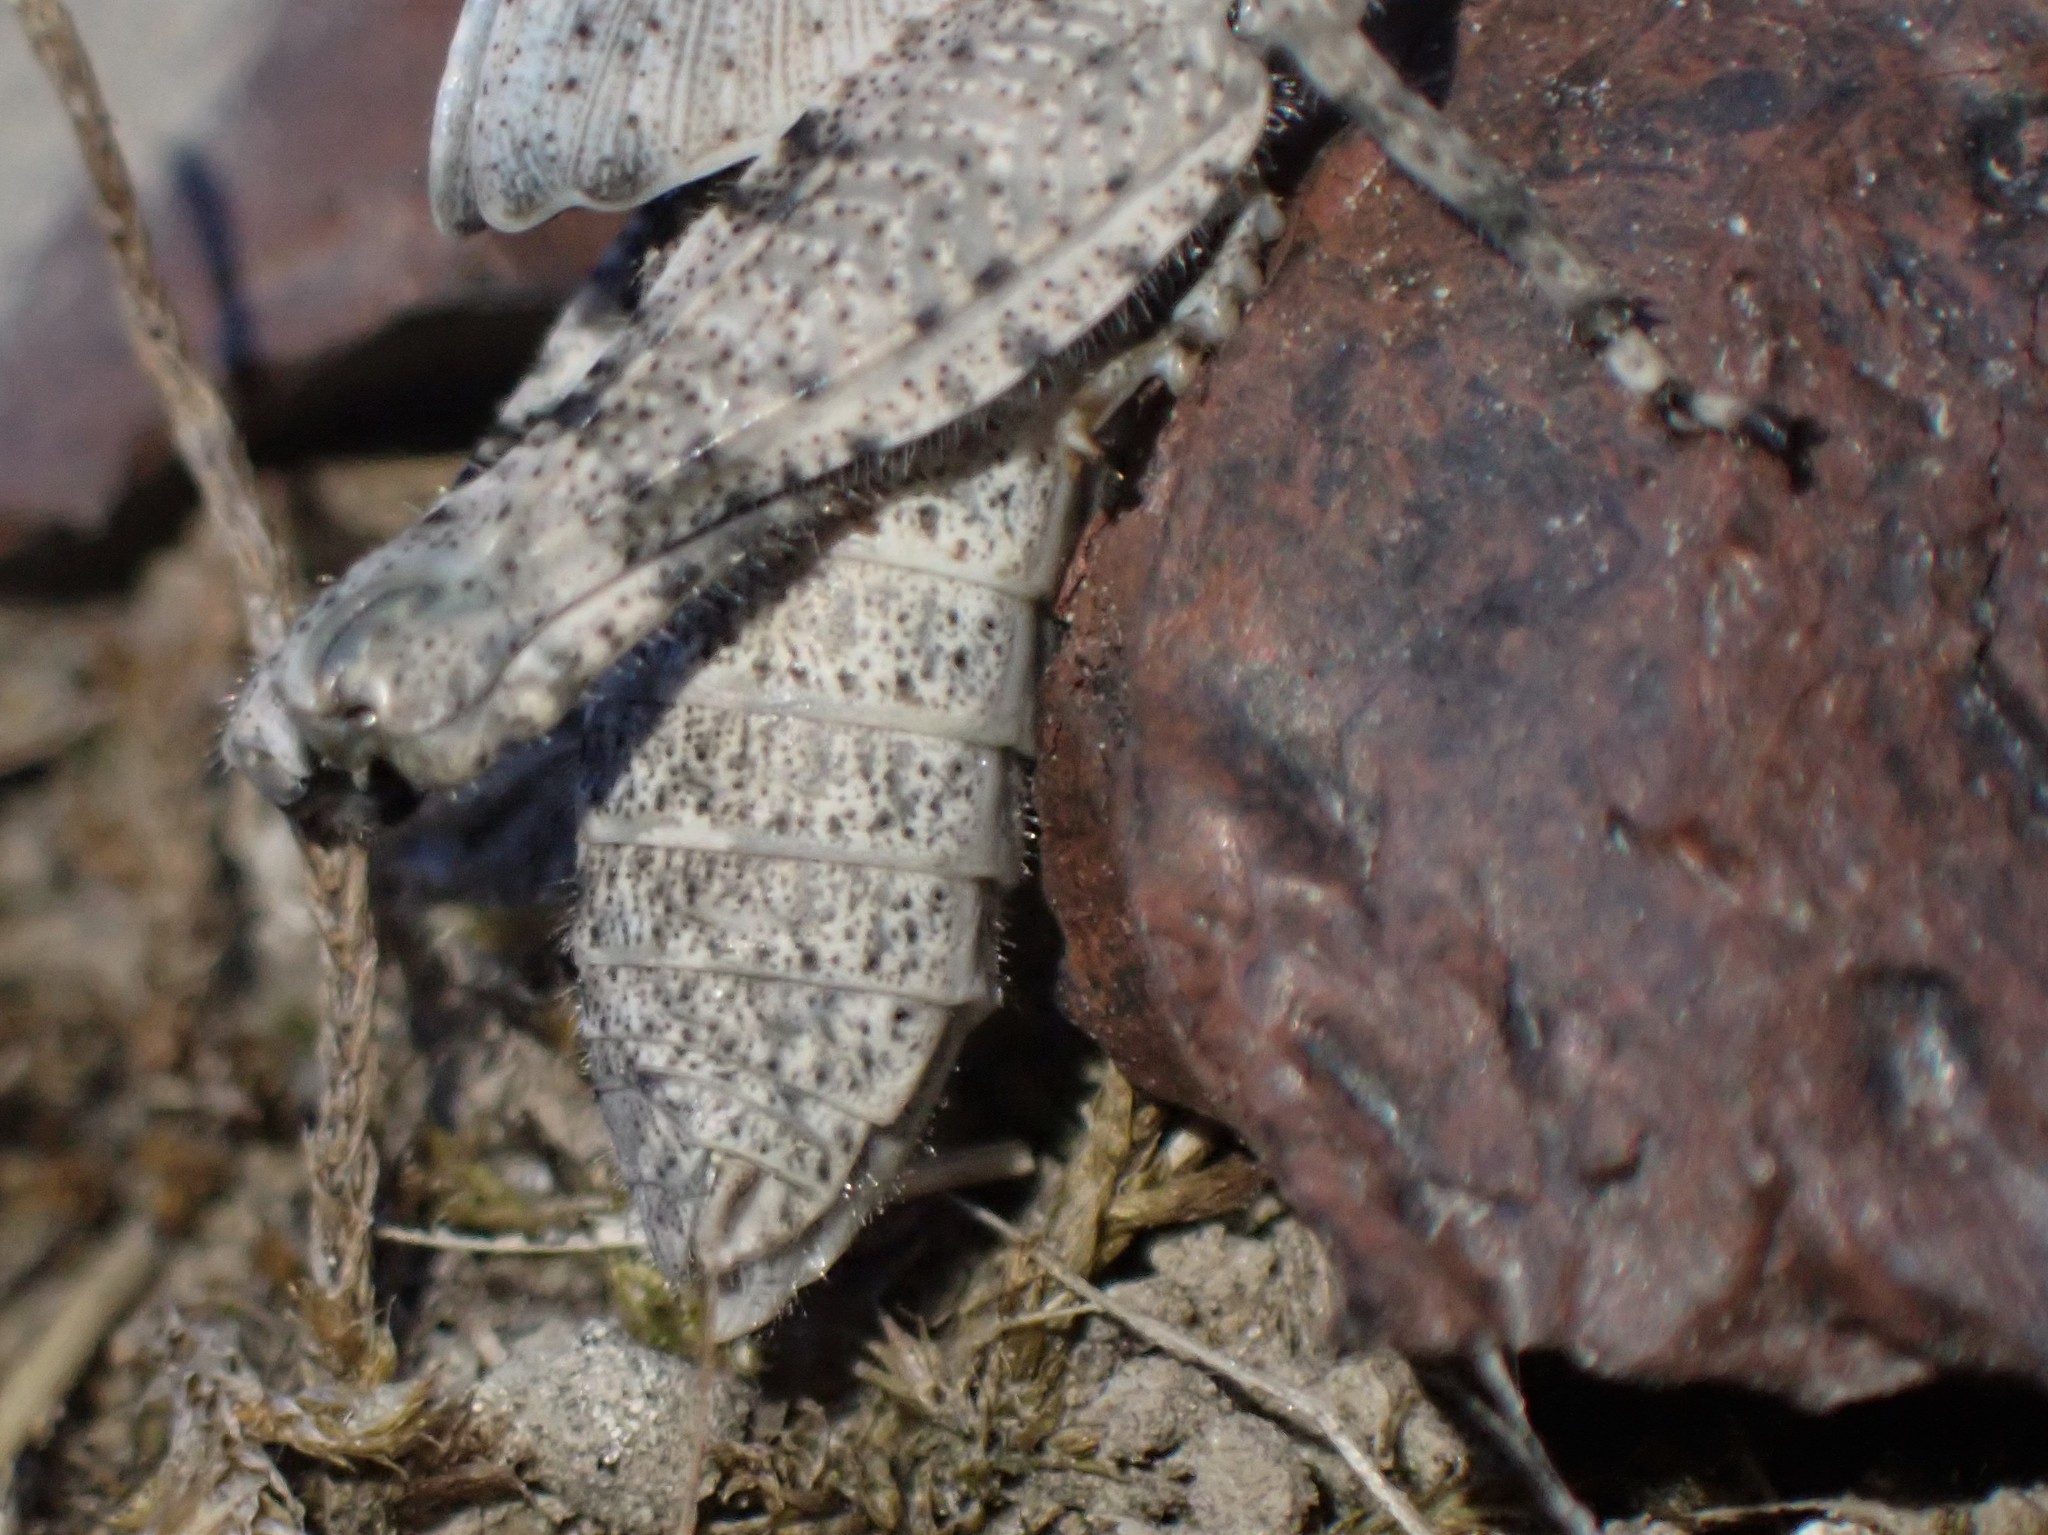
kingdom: Animalia
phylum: Arthropoda
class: Insecta
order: Orthoptera
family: Acrididae
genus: Dissosteira
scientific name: Dissosteira carolina
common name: Carolina grasshopper
